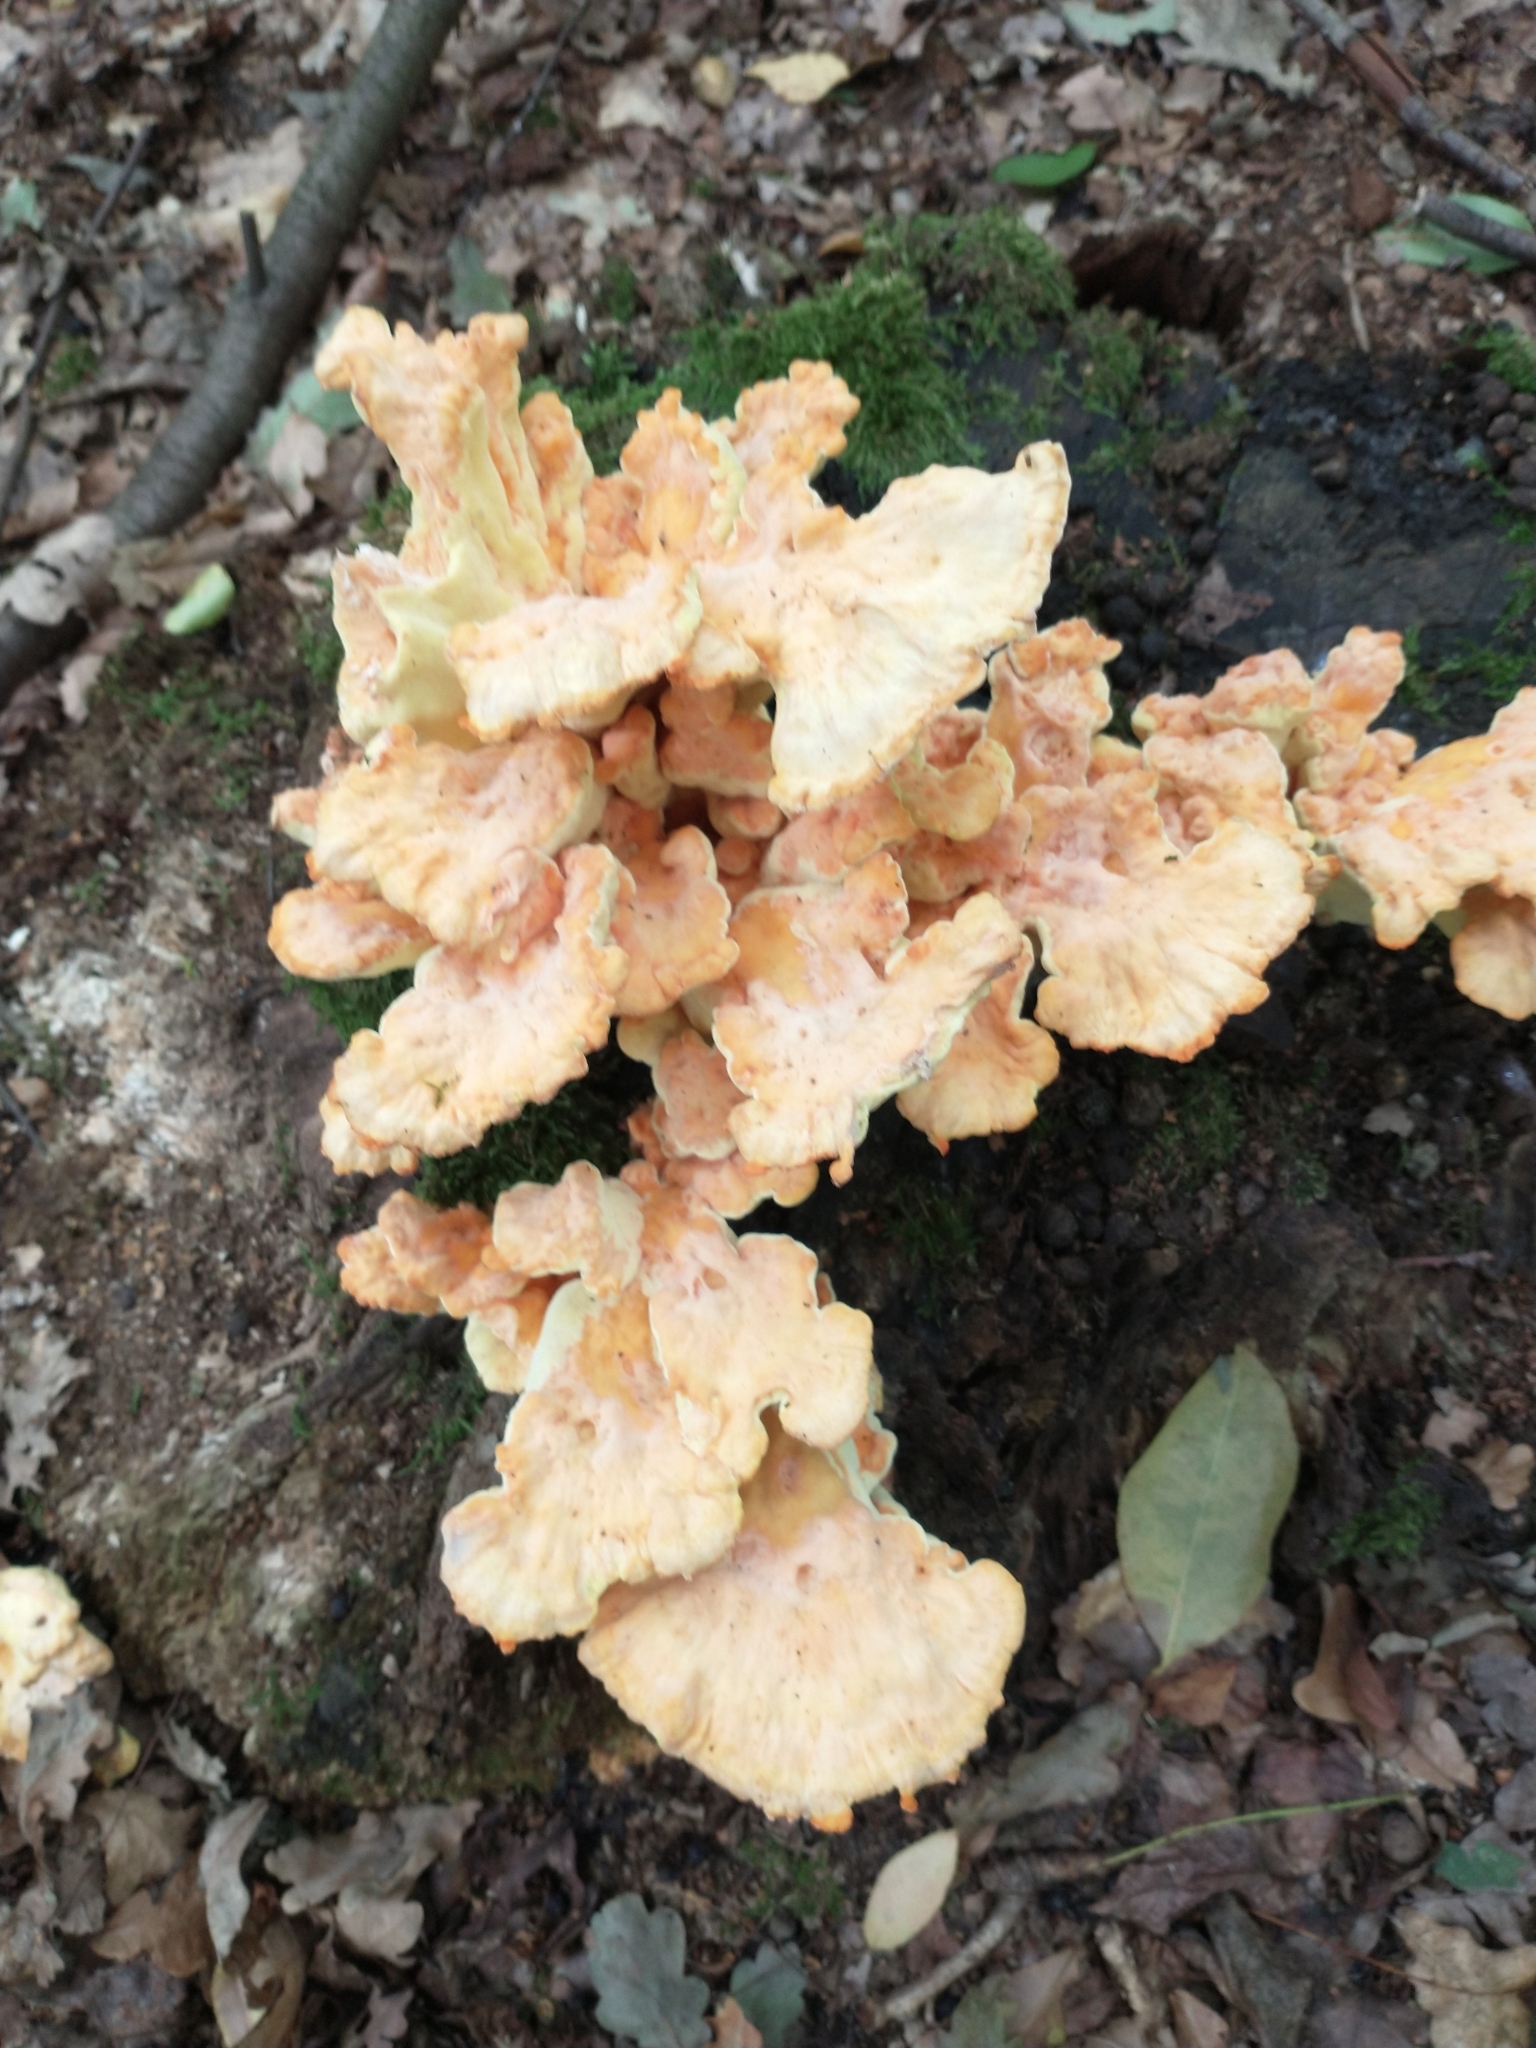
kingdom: Fungi
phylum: Basidiomycota
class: Agaricomycetes
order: Polyporales
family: Laetiporaceae
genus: Laetiporus
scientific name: Laetiporus sulphureus
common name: Chicken of the woods
